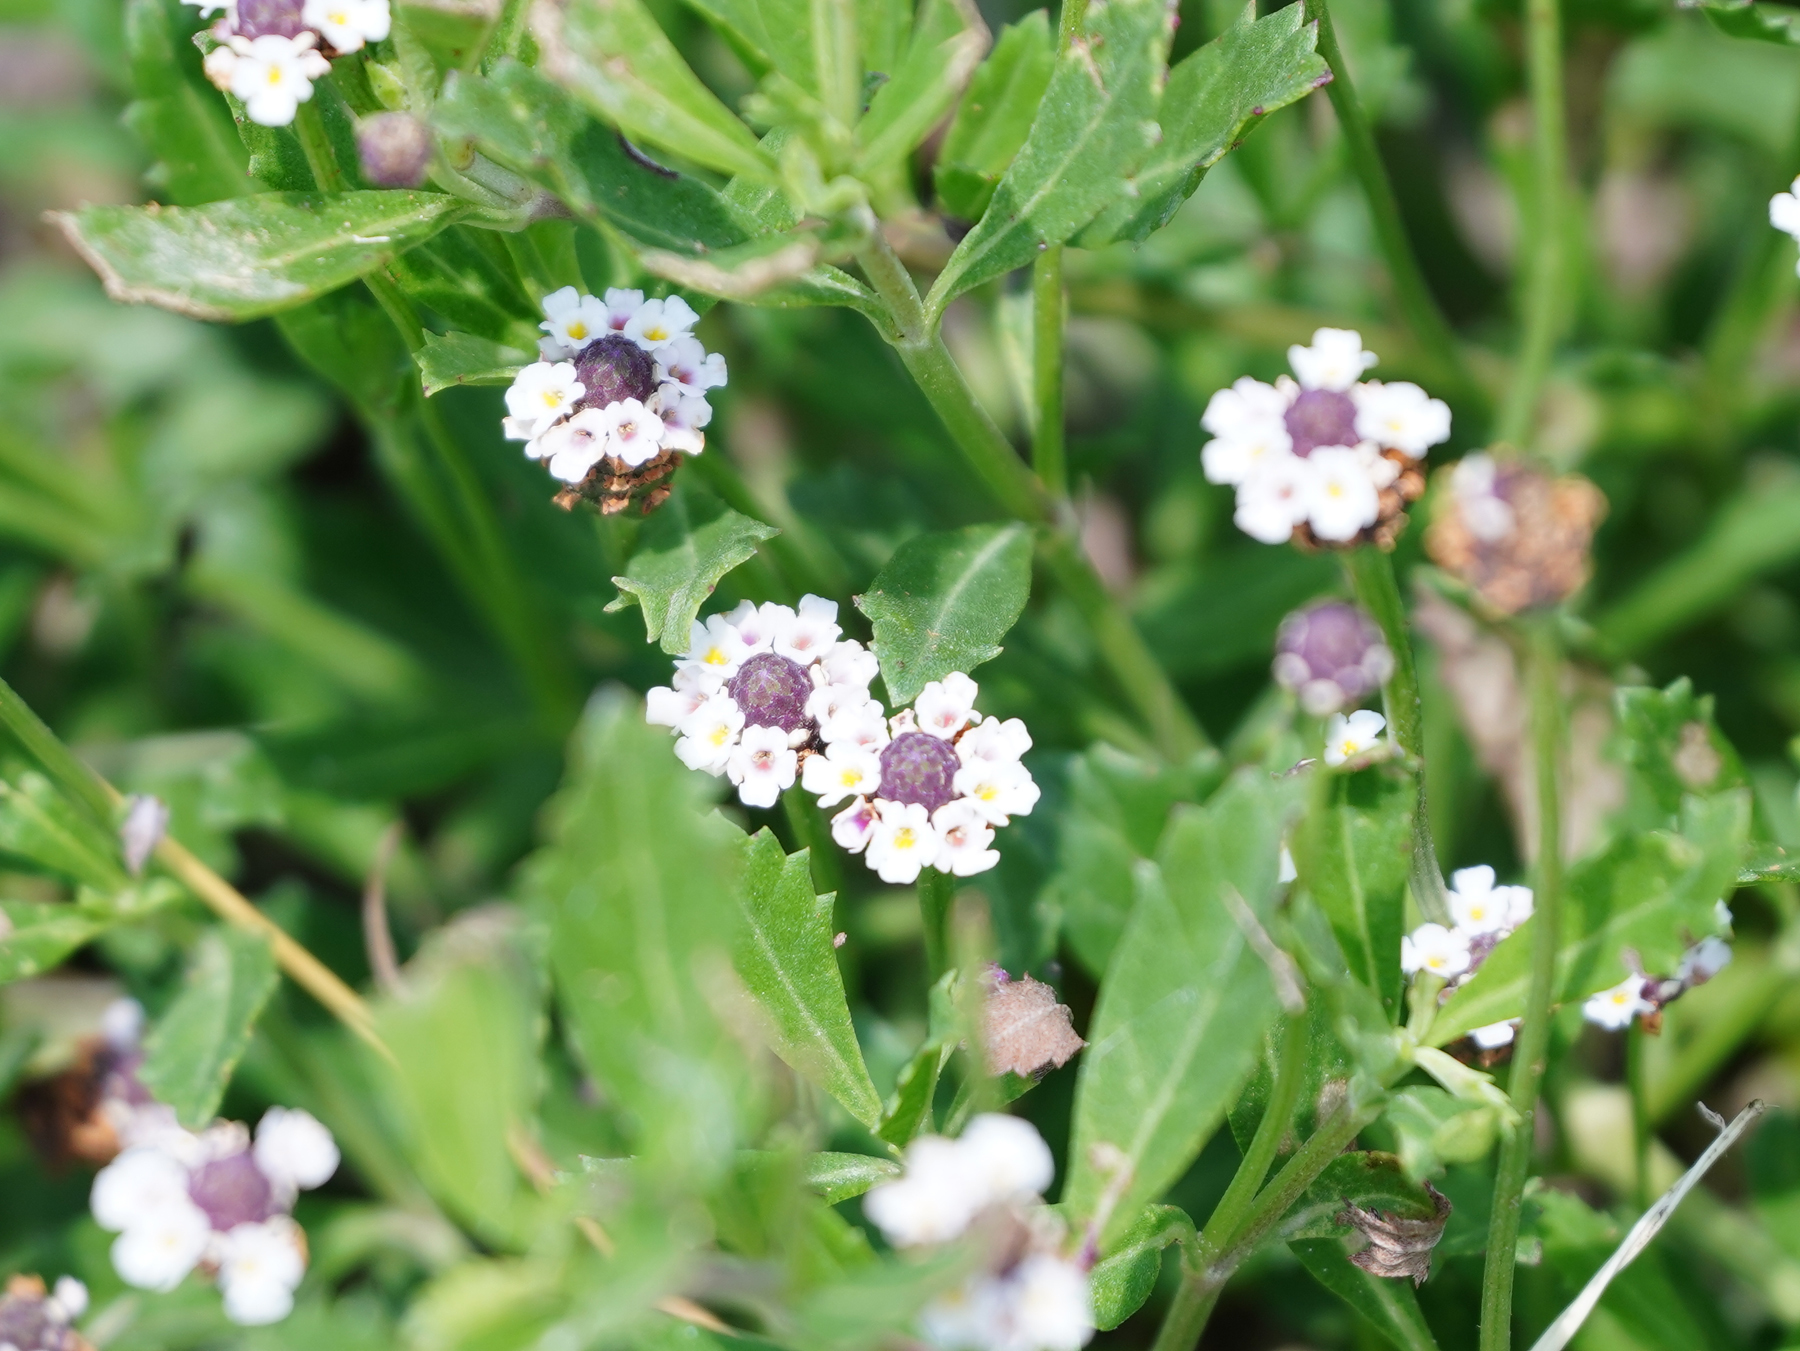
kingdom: Plantae
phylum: Tracheophyta
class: Magnoliopsida
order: Lamiales
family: Verbenaceae
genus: Phyla
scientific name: Phyla lanceolata
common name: Northern fogfruit
